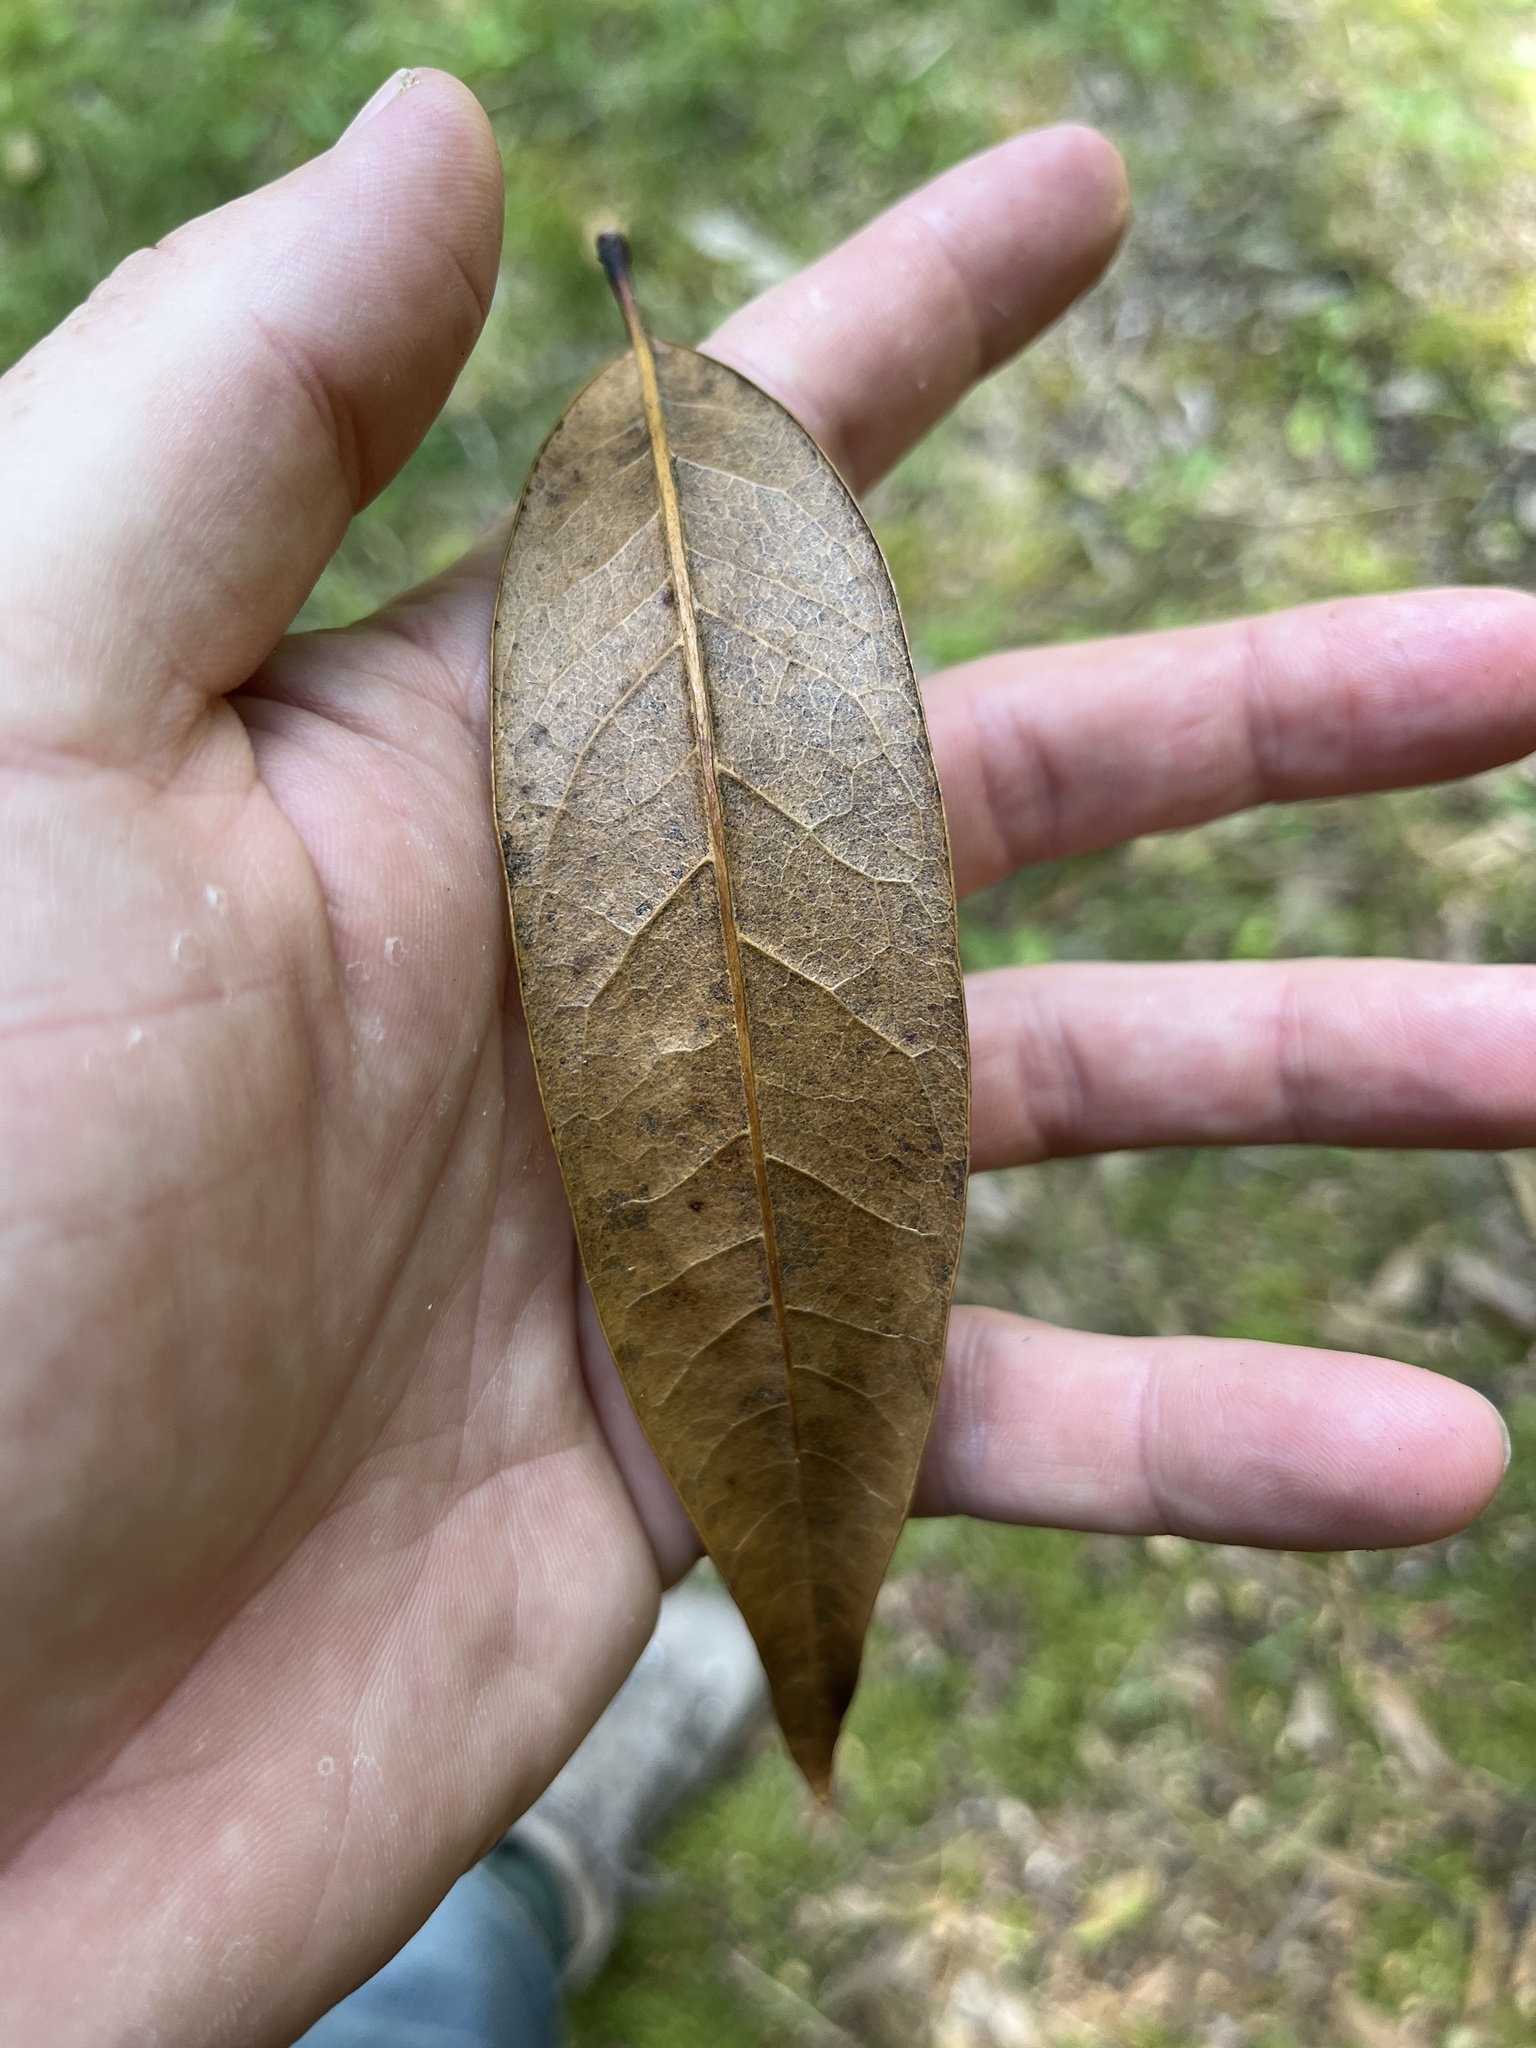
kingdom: Plantae
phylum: Tracheophyta
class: Magnoliopsida
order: Lamiales
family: Oleaceae
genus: Nestegis
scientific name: Nestegis cunninghamii
